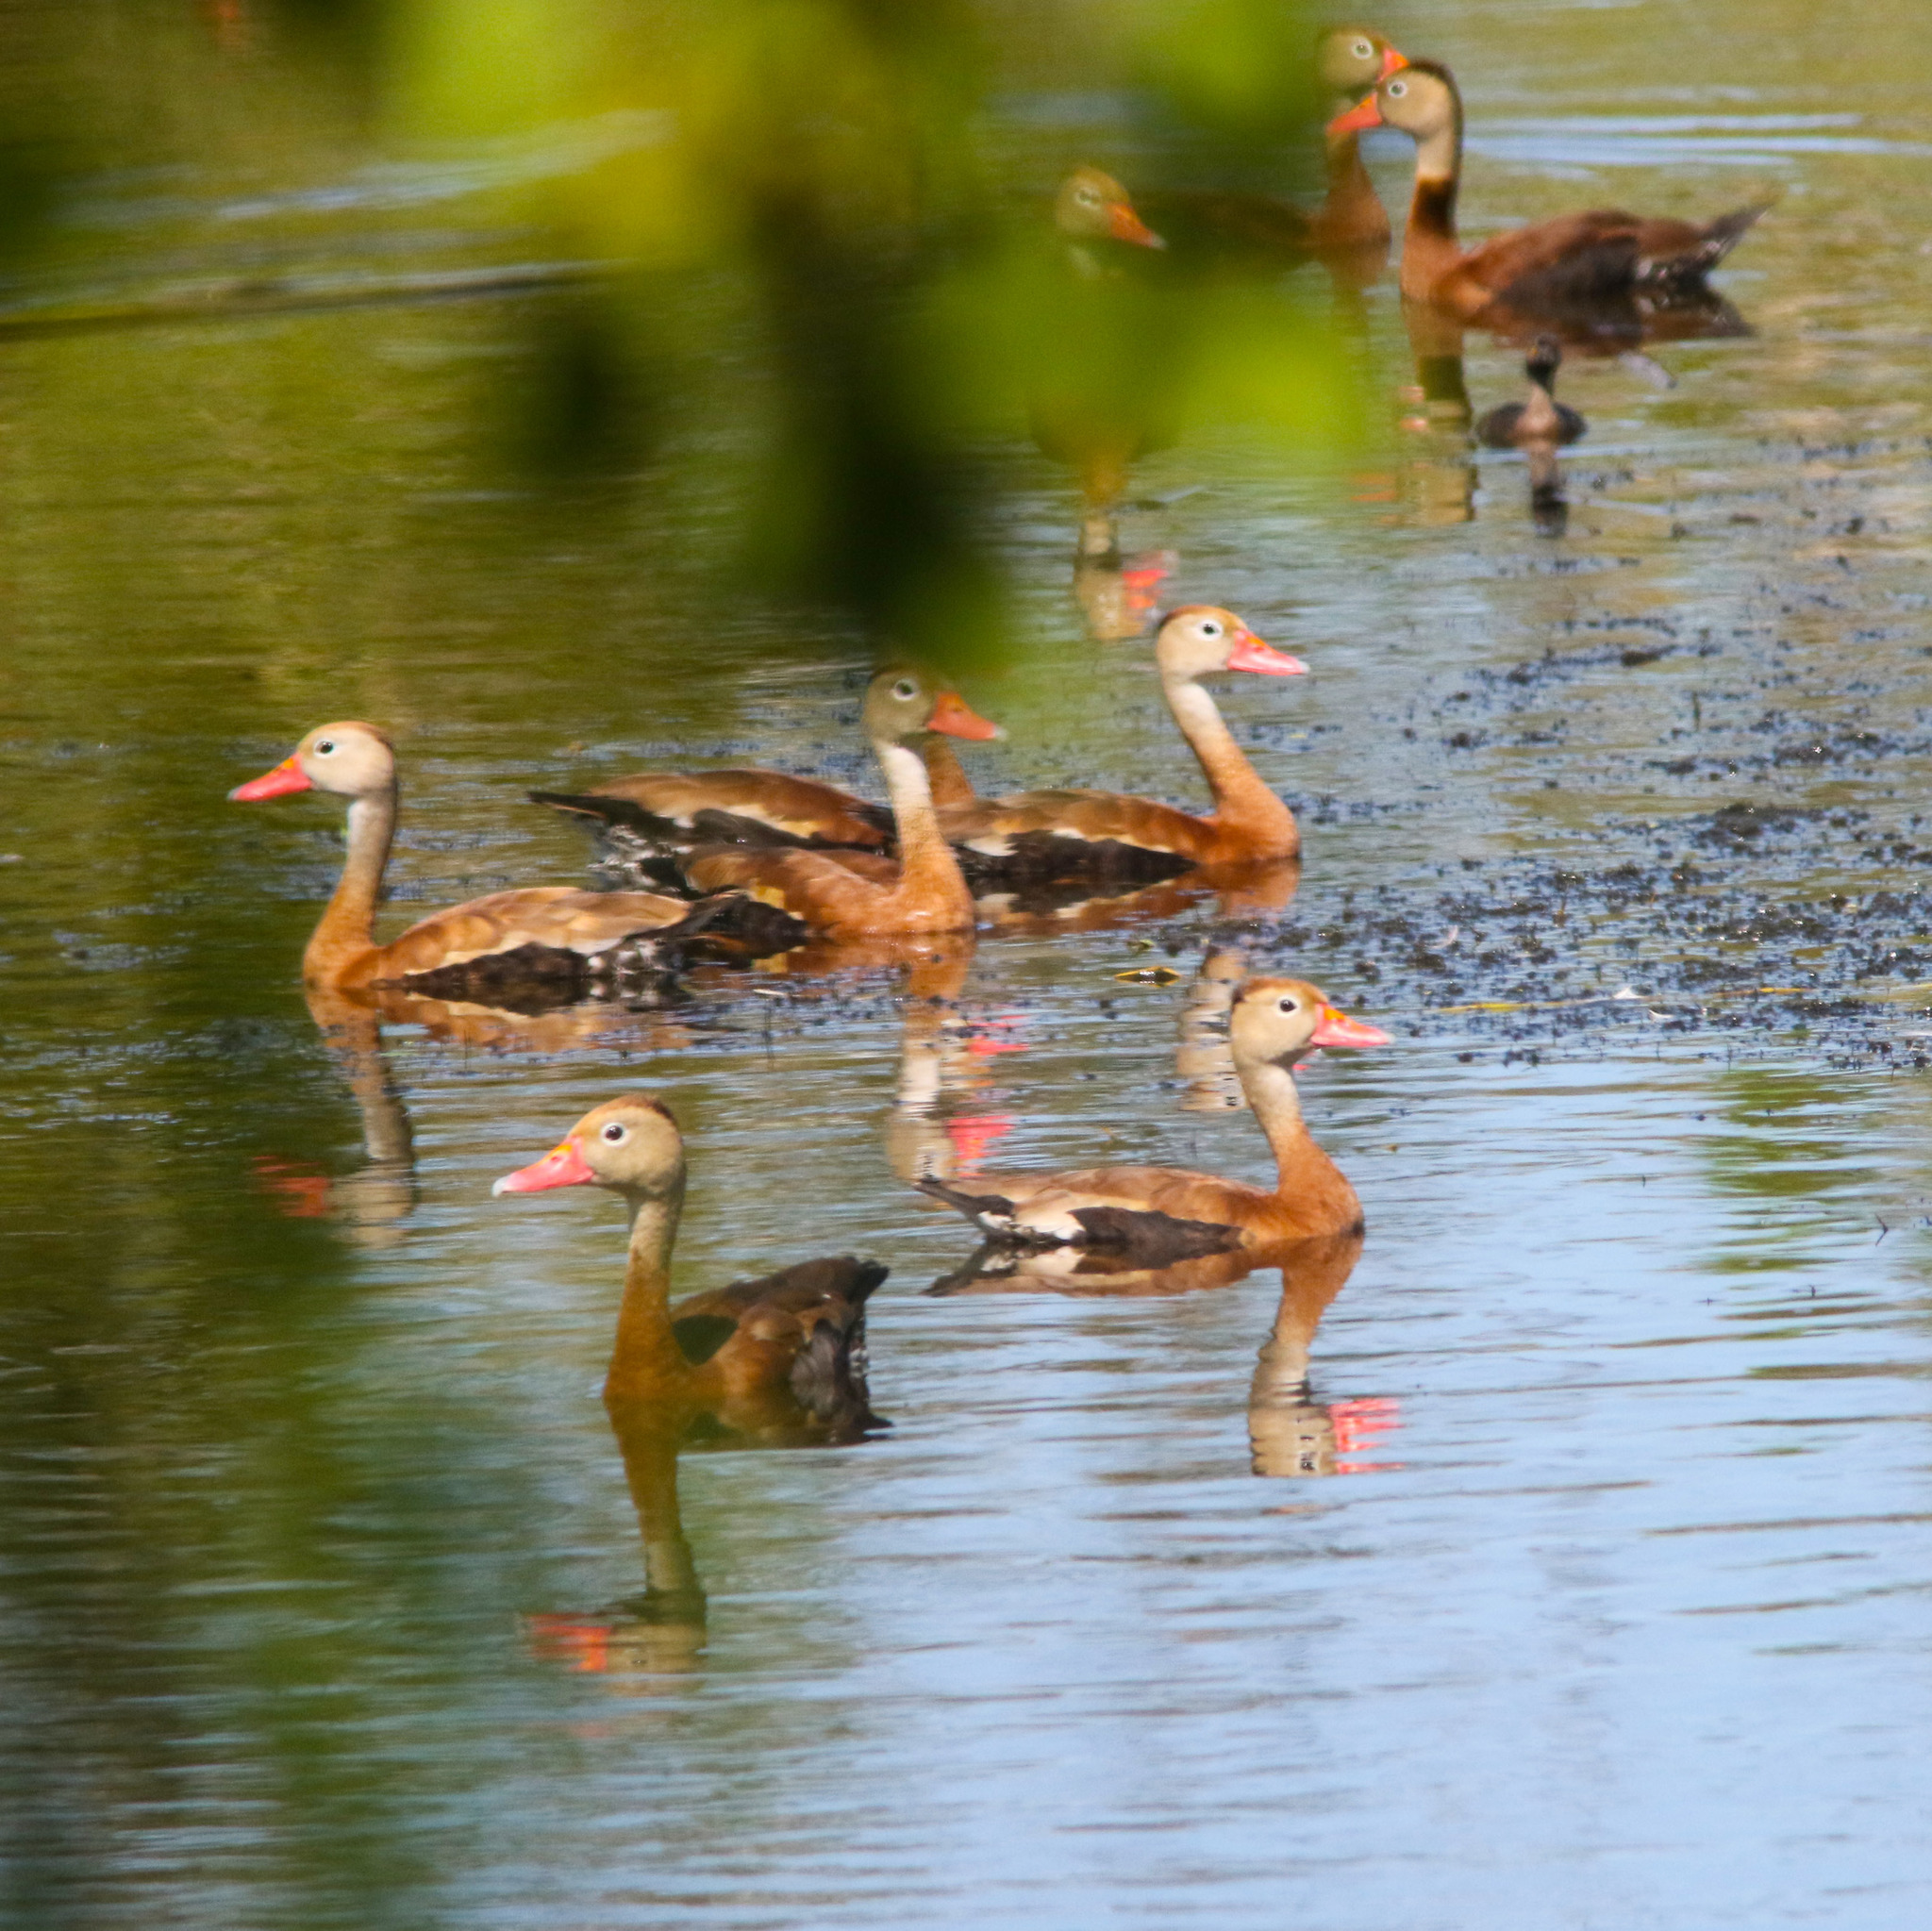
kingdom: Animalia
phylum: Chordata
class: Aves
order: Anseriformes
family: Anatidae
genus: Dendrocygna
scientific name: Dendrocygna autumnalis
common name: Black-bellied whistling duck
